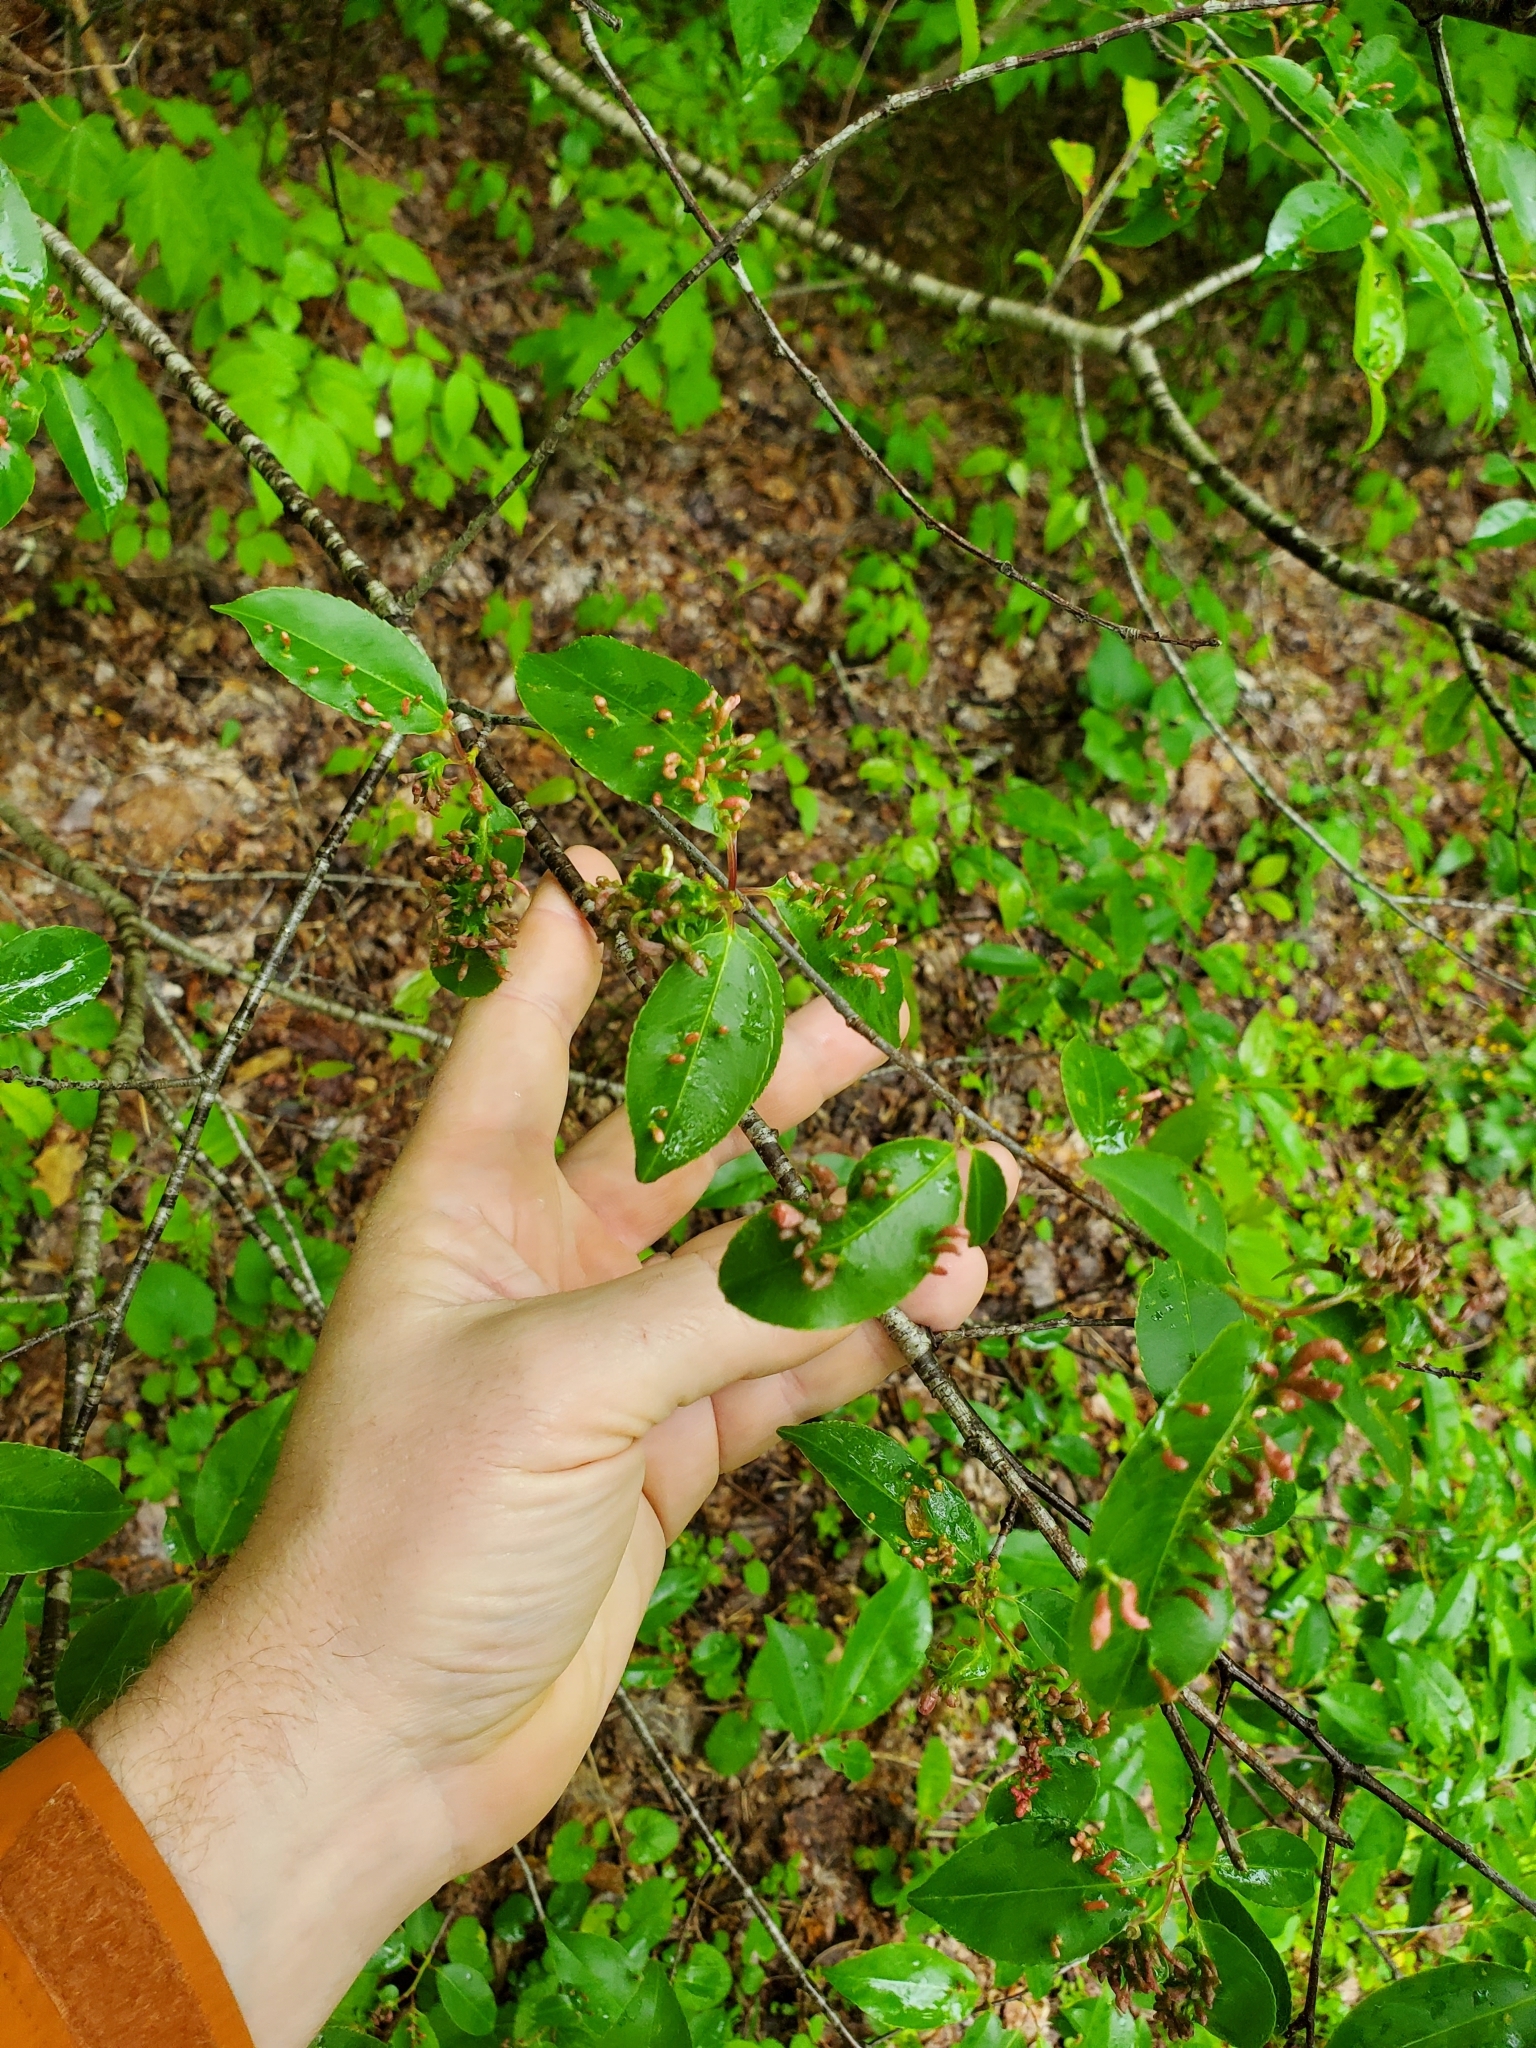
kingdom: Animalia
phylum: Arthropoda
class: Arachnida
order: Trombidiformes
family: Eriophyidae
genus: Eriophyes
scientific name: Eriophyes
